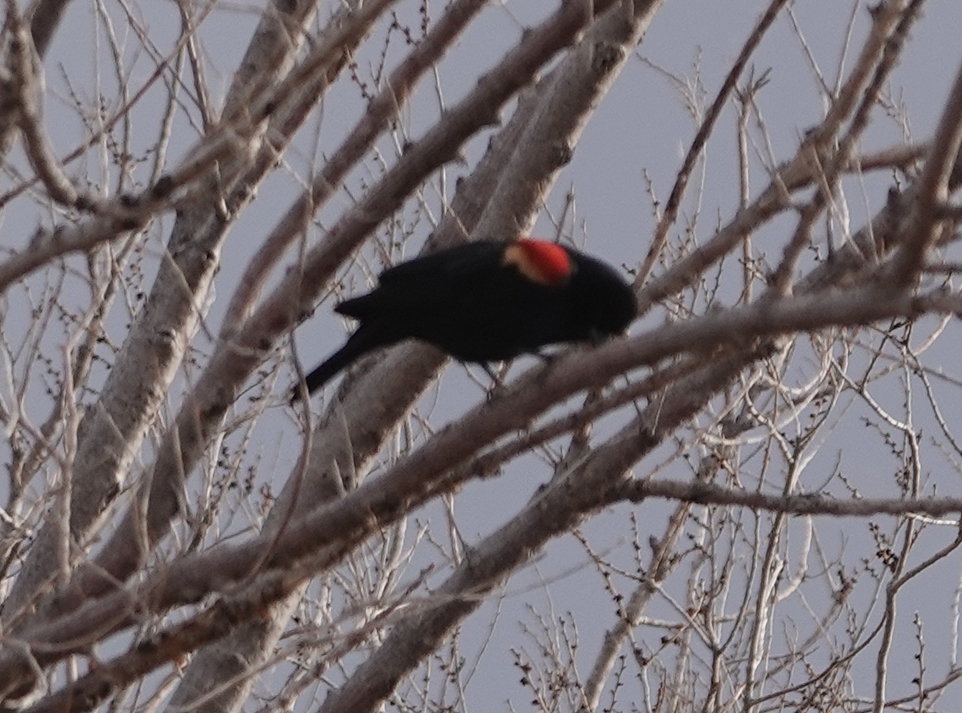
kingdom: Animalia
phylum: Chordata
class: Aves
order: Passeriformes
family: Icteridae
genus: Agelaius
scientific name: Agelaius phoeniceus
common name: Red-winged blackbird
